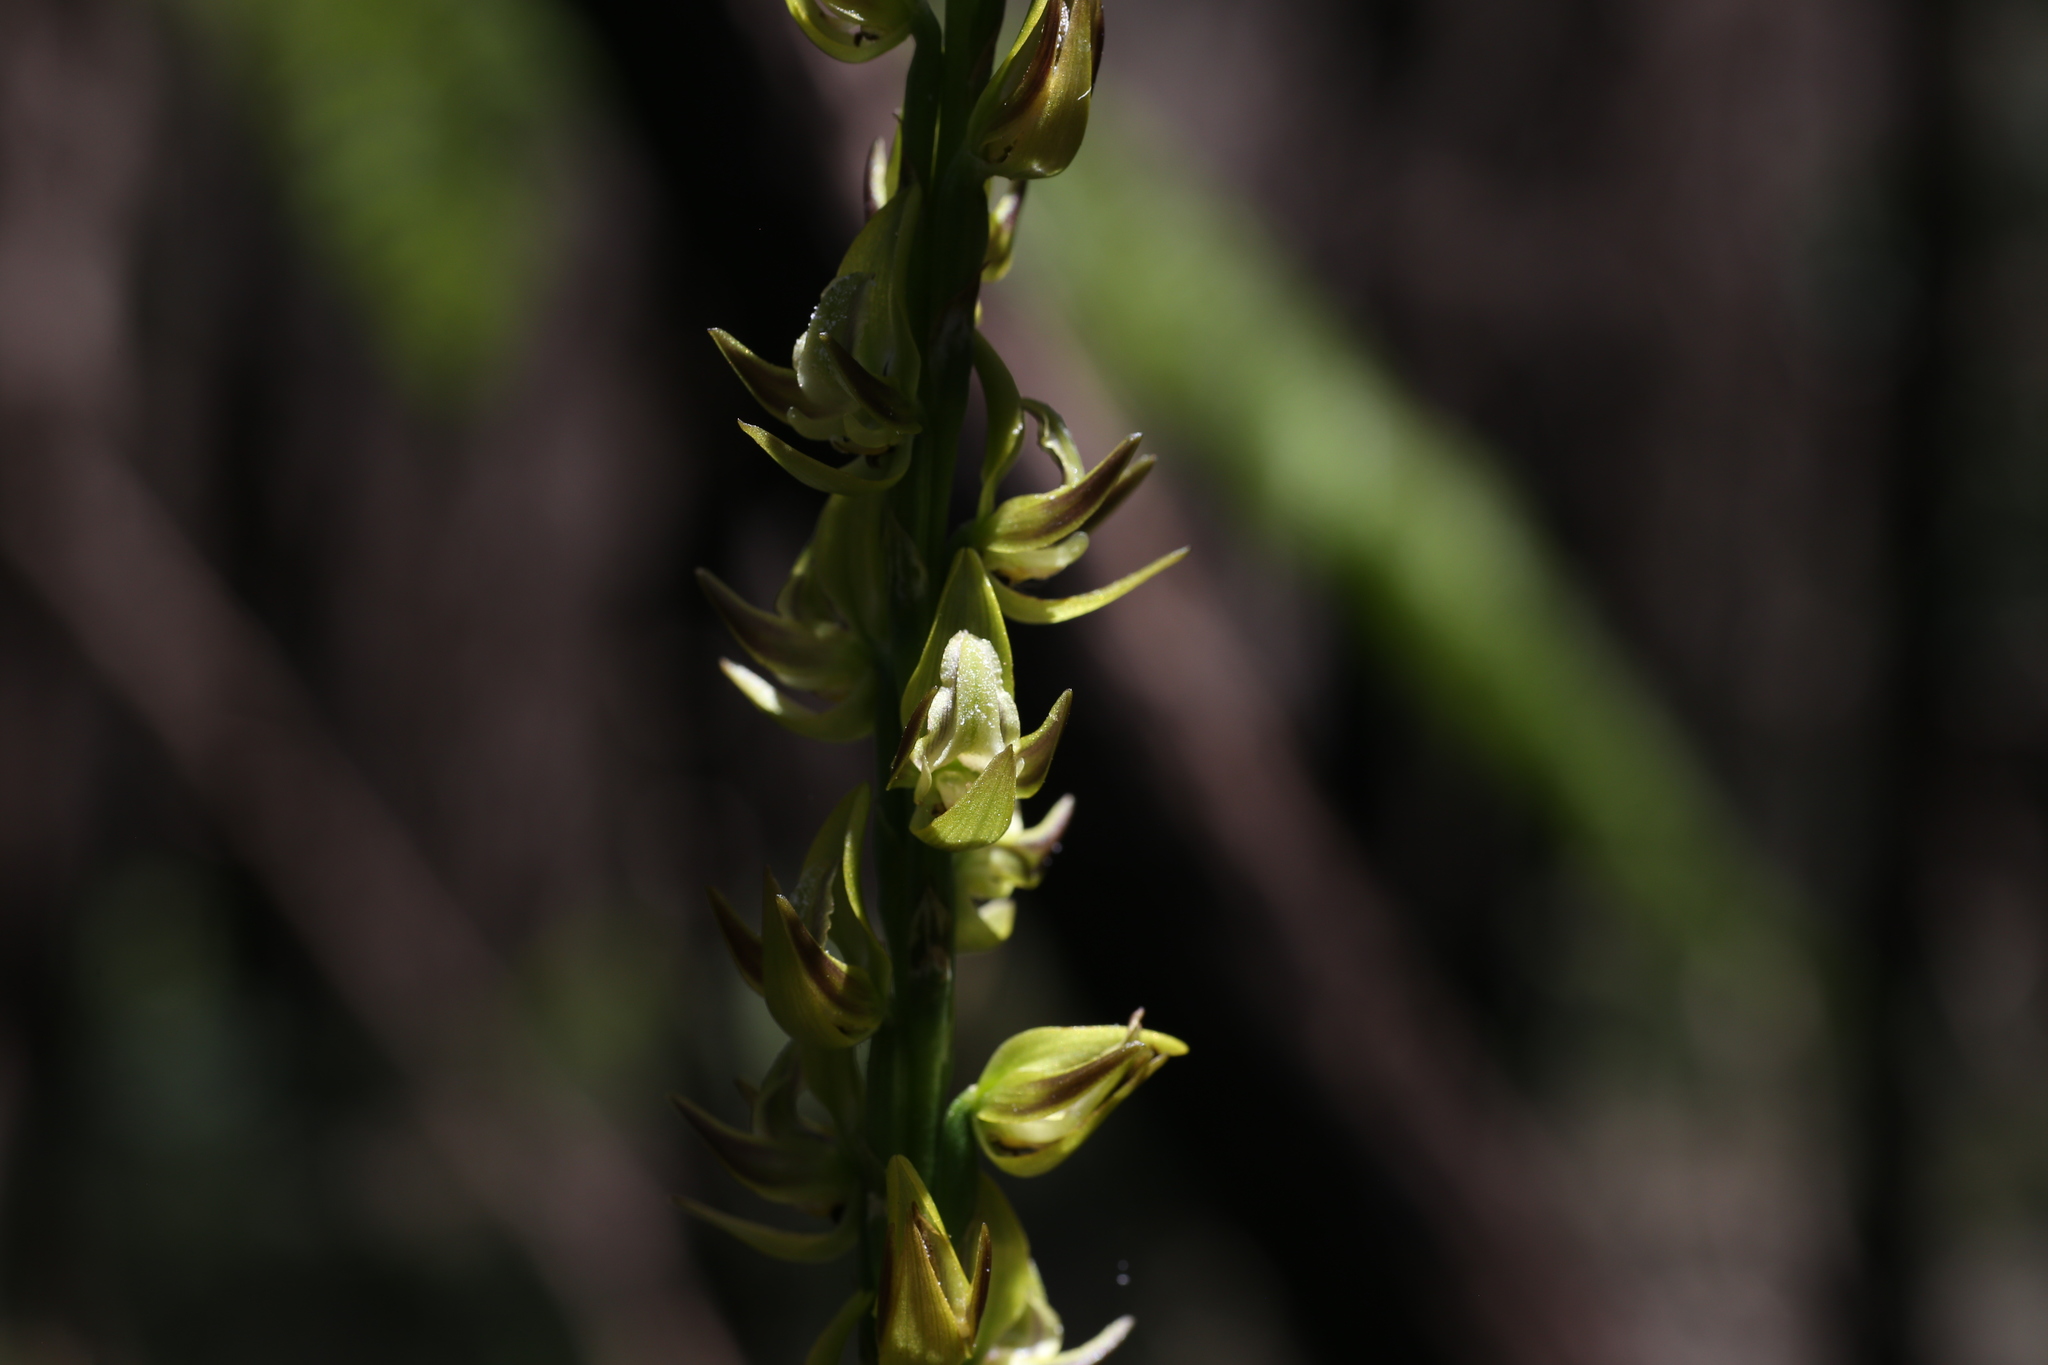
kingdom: Plantae
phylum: Tracheophyta
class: Liliopsida
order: Asparagales
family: Orchidaceae
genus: Prasophyllum
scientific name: Prasophyllum regium
